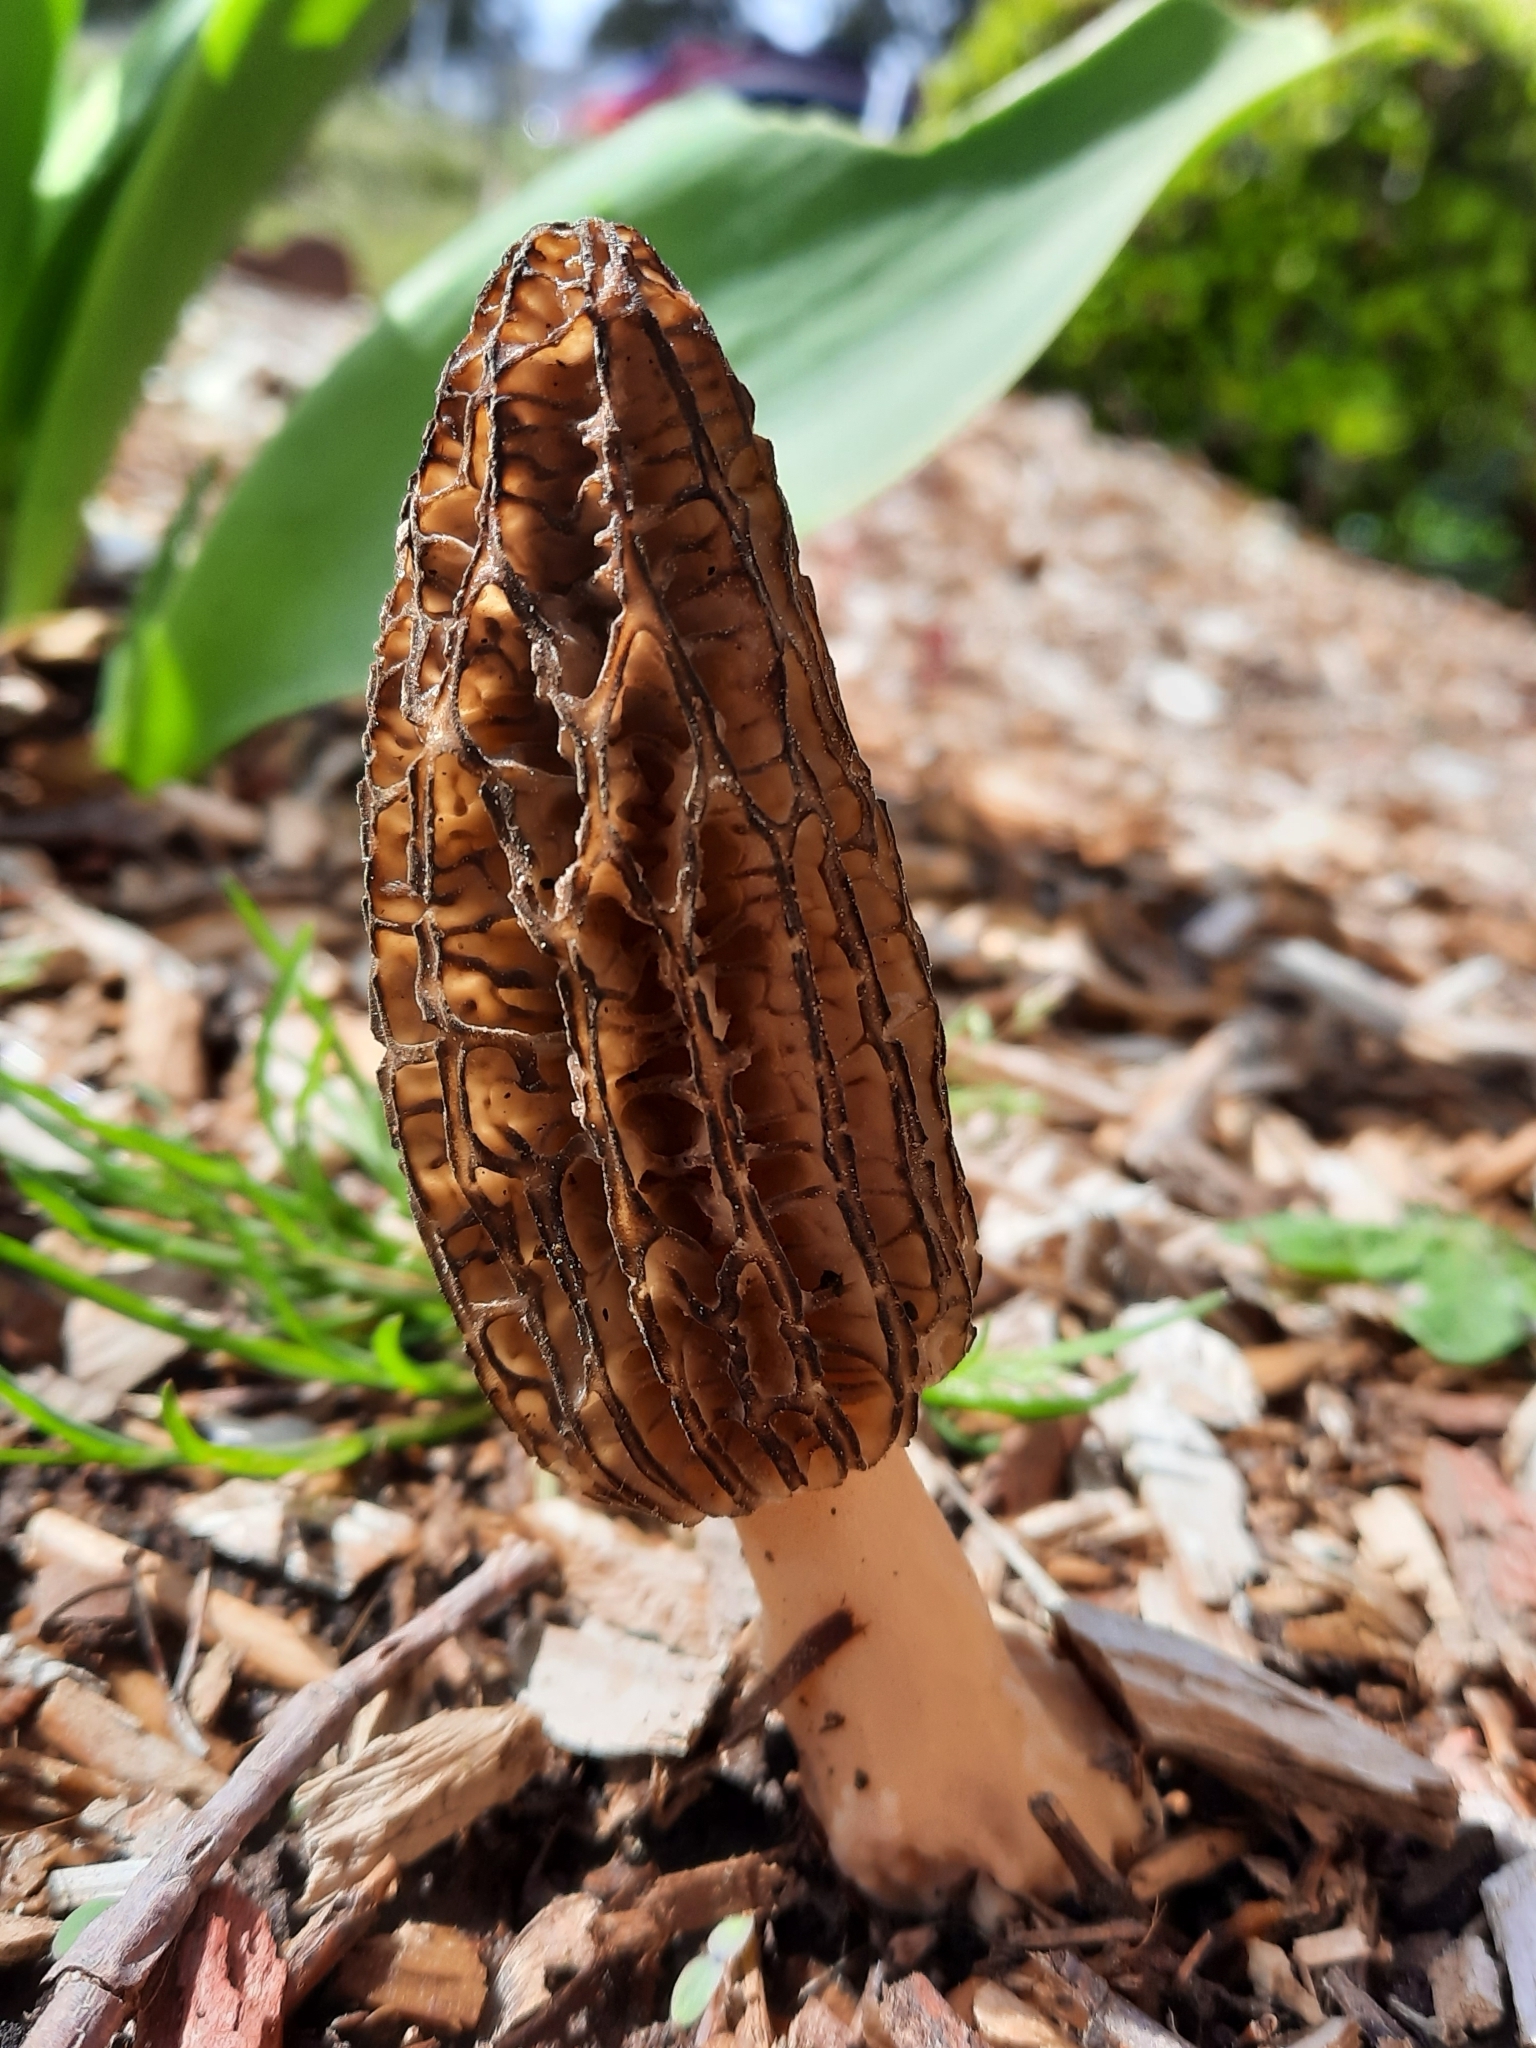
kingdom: Fungi
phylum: Ascomycota
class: Pezizomycetes
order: Pezizales
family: Morchellaceae
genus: Morchella
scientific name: Morchella importuna
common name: Landscaping black morel
